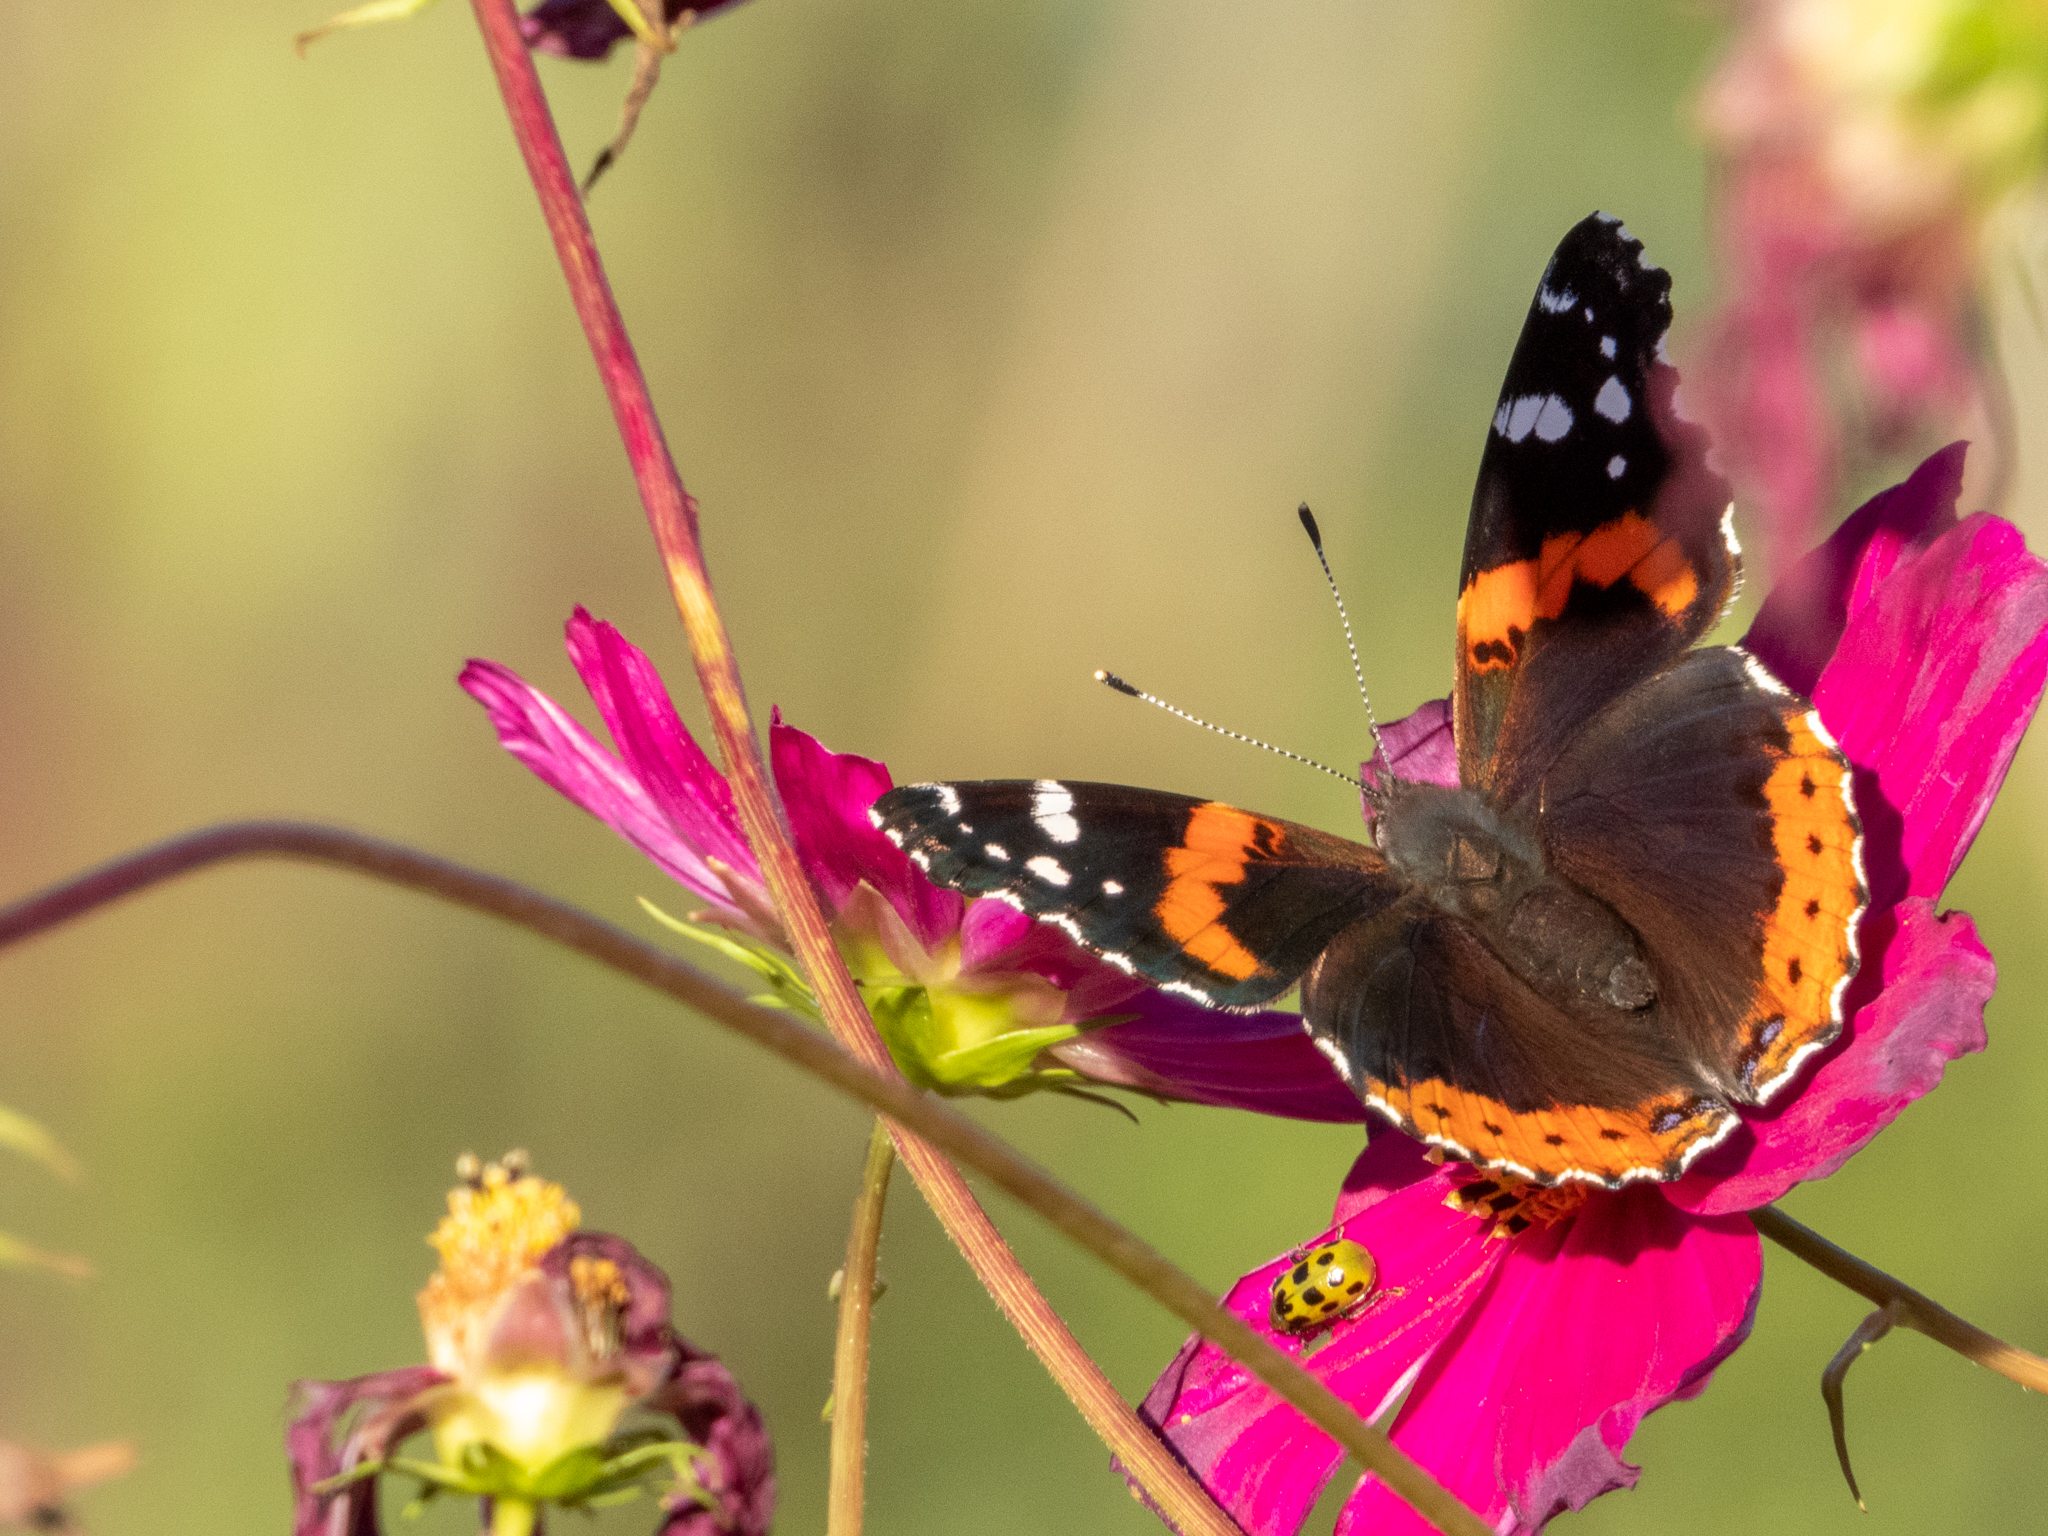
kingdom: Animalia
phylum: Arthropoda
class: Insecta
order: Lepidoptera
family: Nymphalidae
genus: Vanessa
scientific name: Vanessa atalanta
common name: Red admiral
